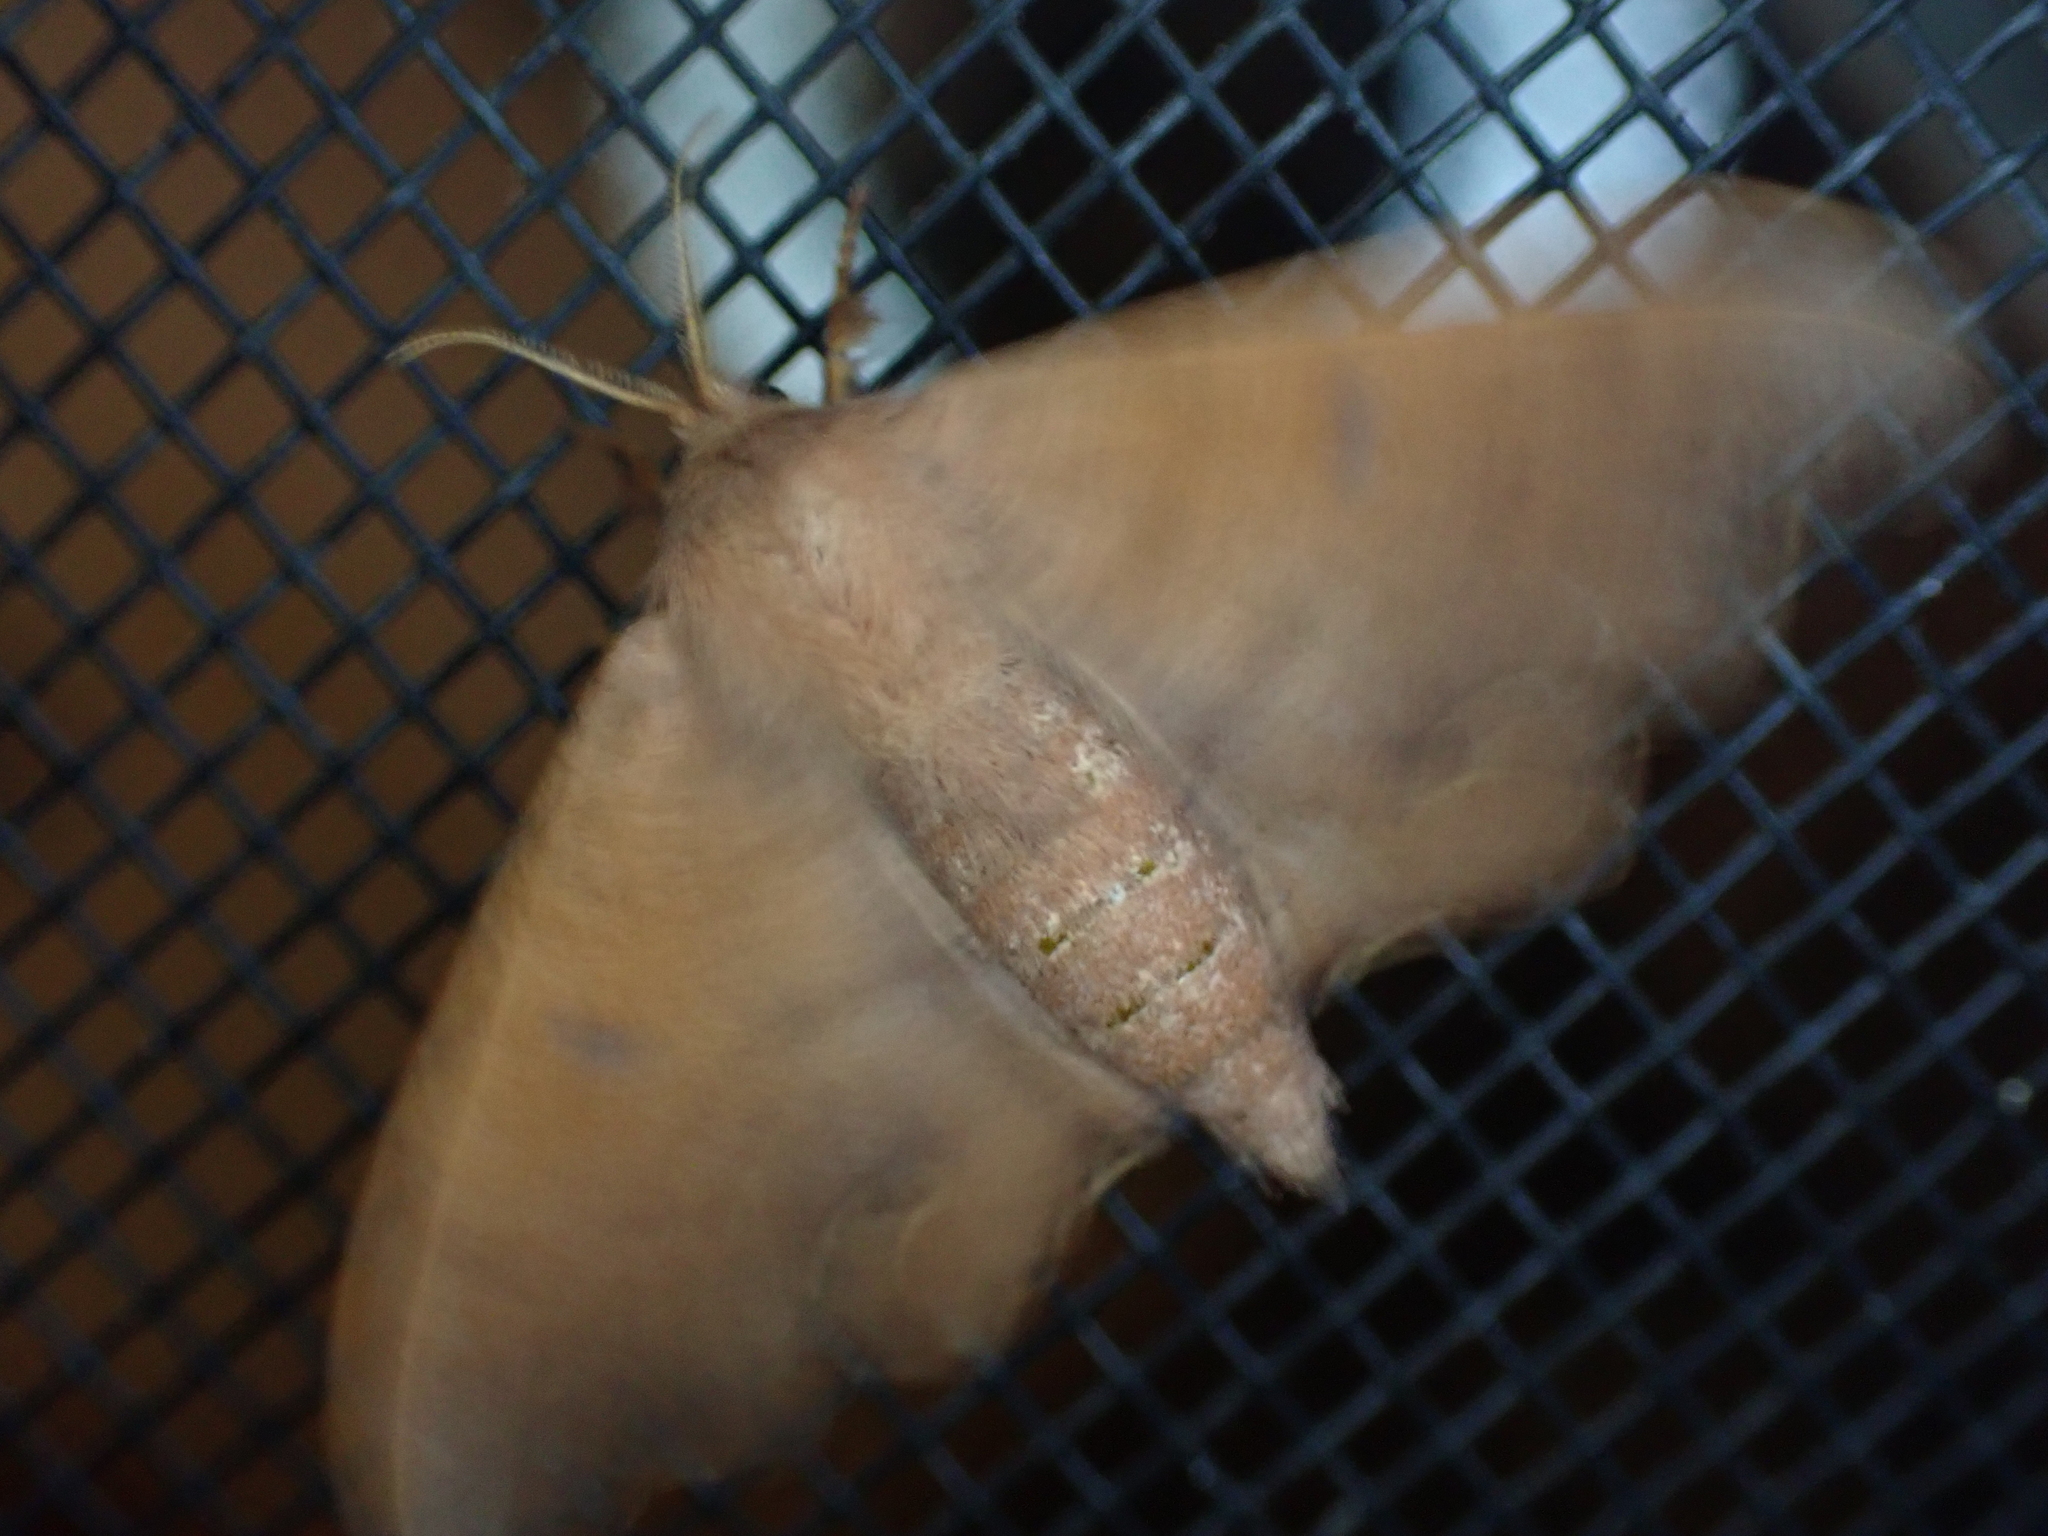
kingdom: Animalia
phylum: Arthropoda
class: Insecta
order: Lepidoptera
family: Mimallonidae
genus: Lacosoma
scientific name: Lacosoma chiridota
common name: Scalloped sack-bearer moth
